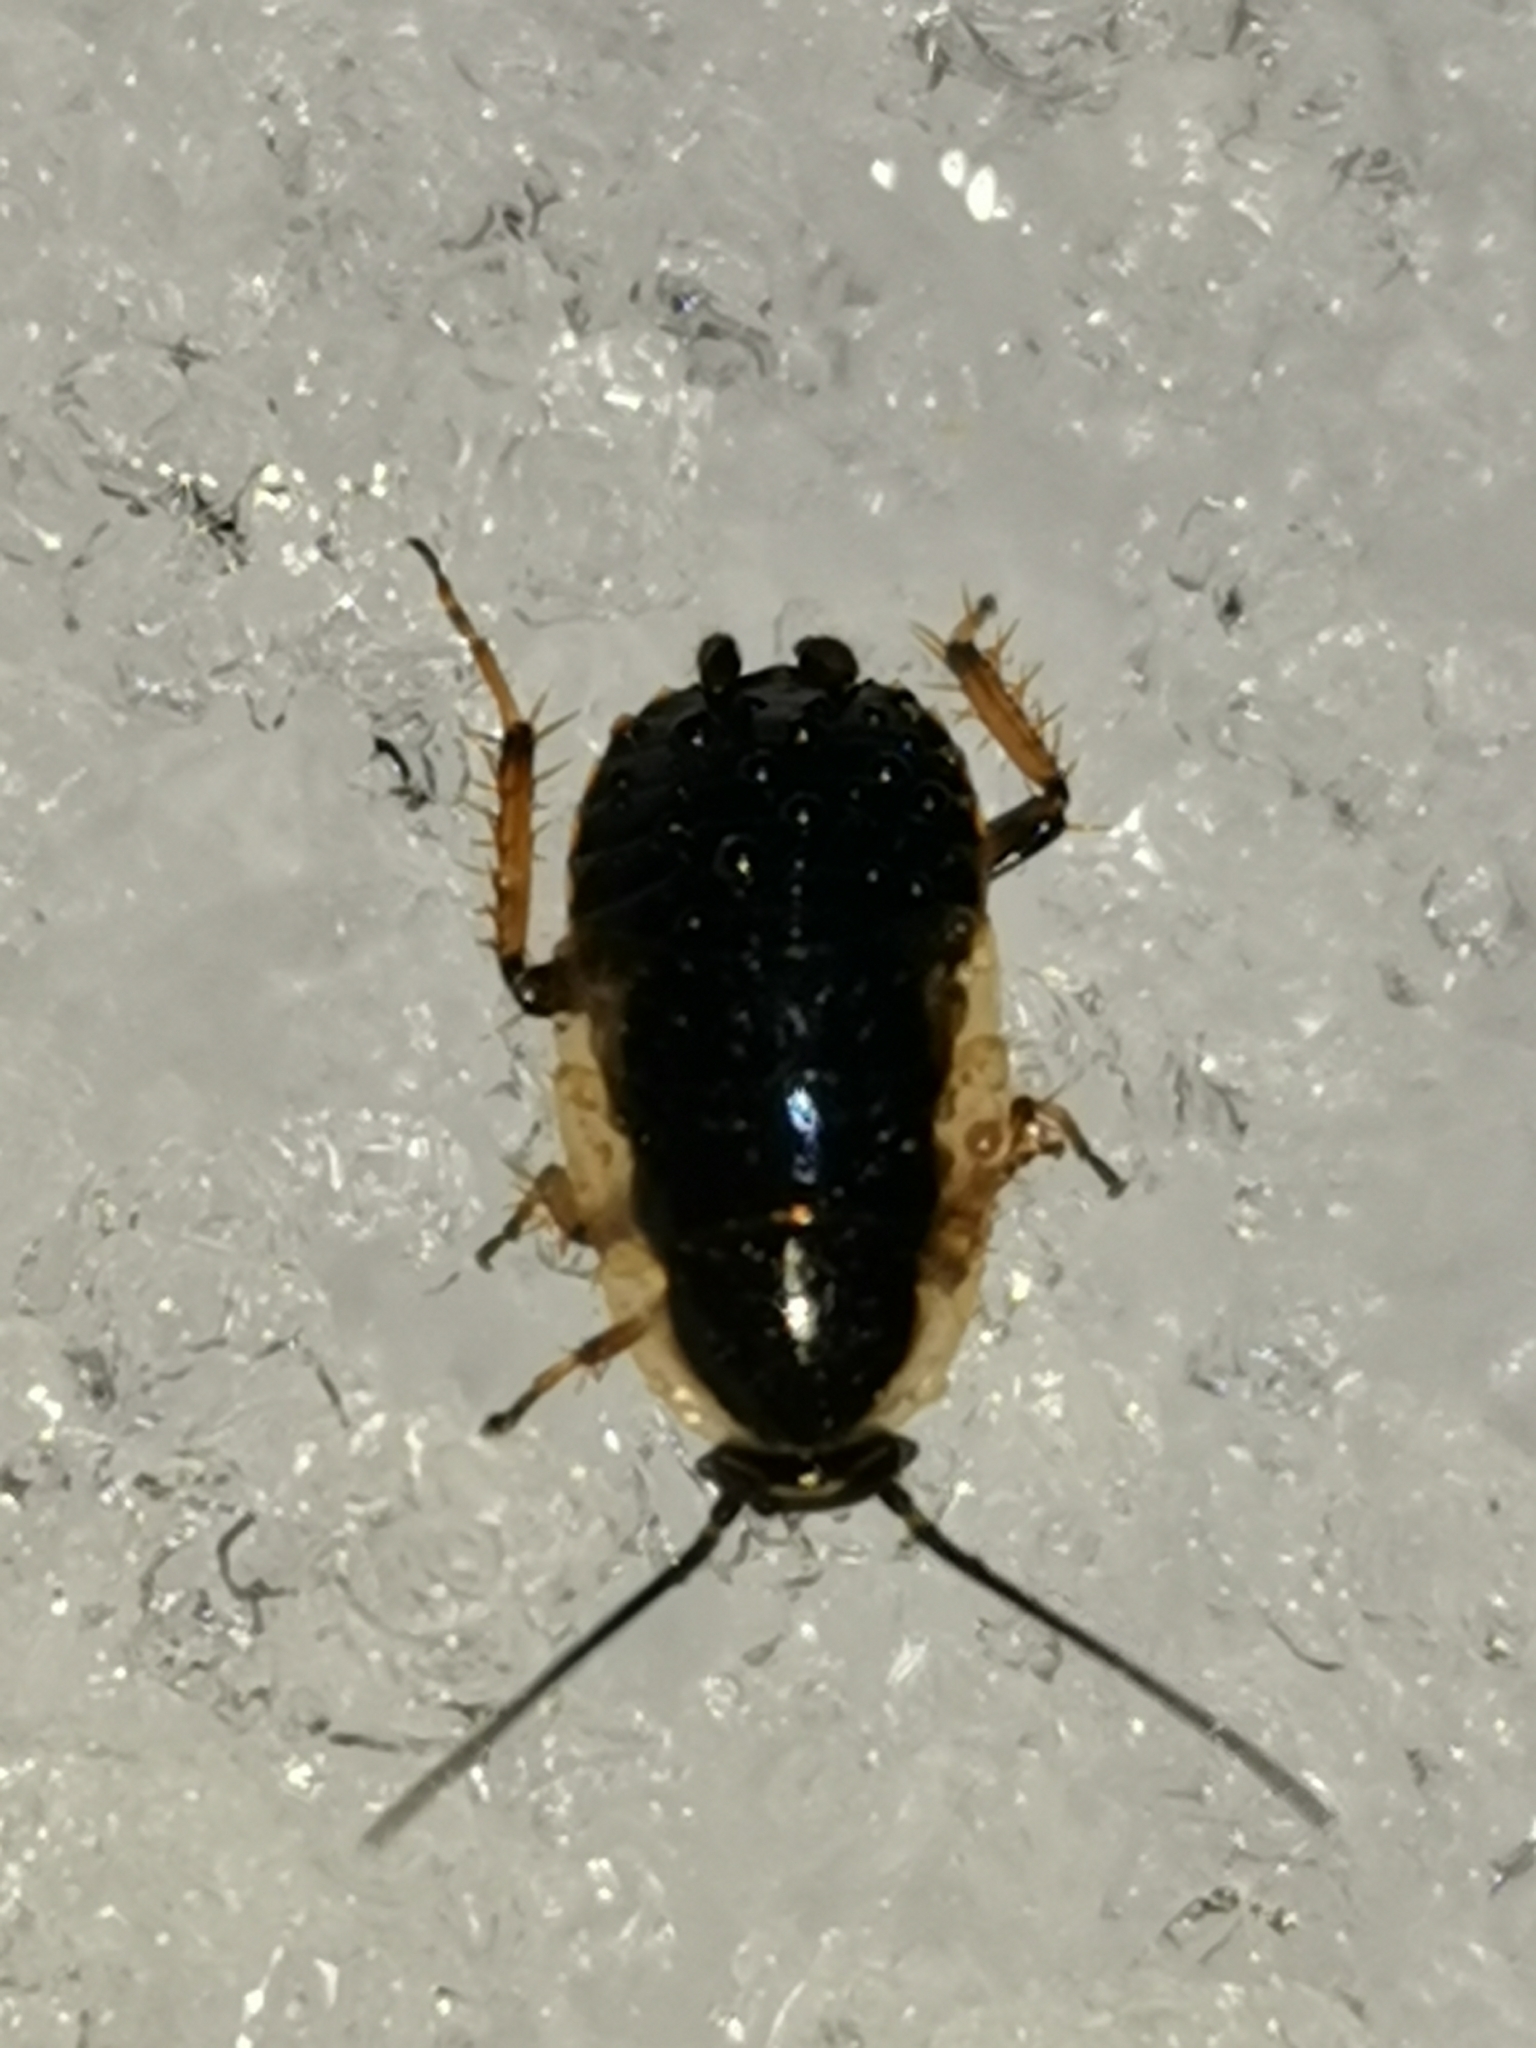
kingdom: Animalia
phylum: Arthropoda
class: Insecta
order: Blattodea
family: Ectobiidae
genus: Ectobius
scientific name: Ectobius sylvestris
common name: Forest cockroach
